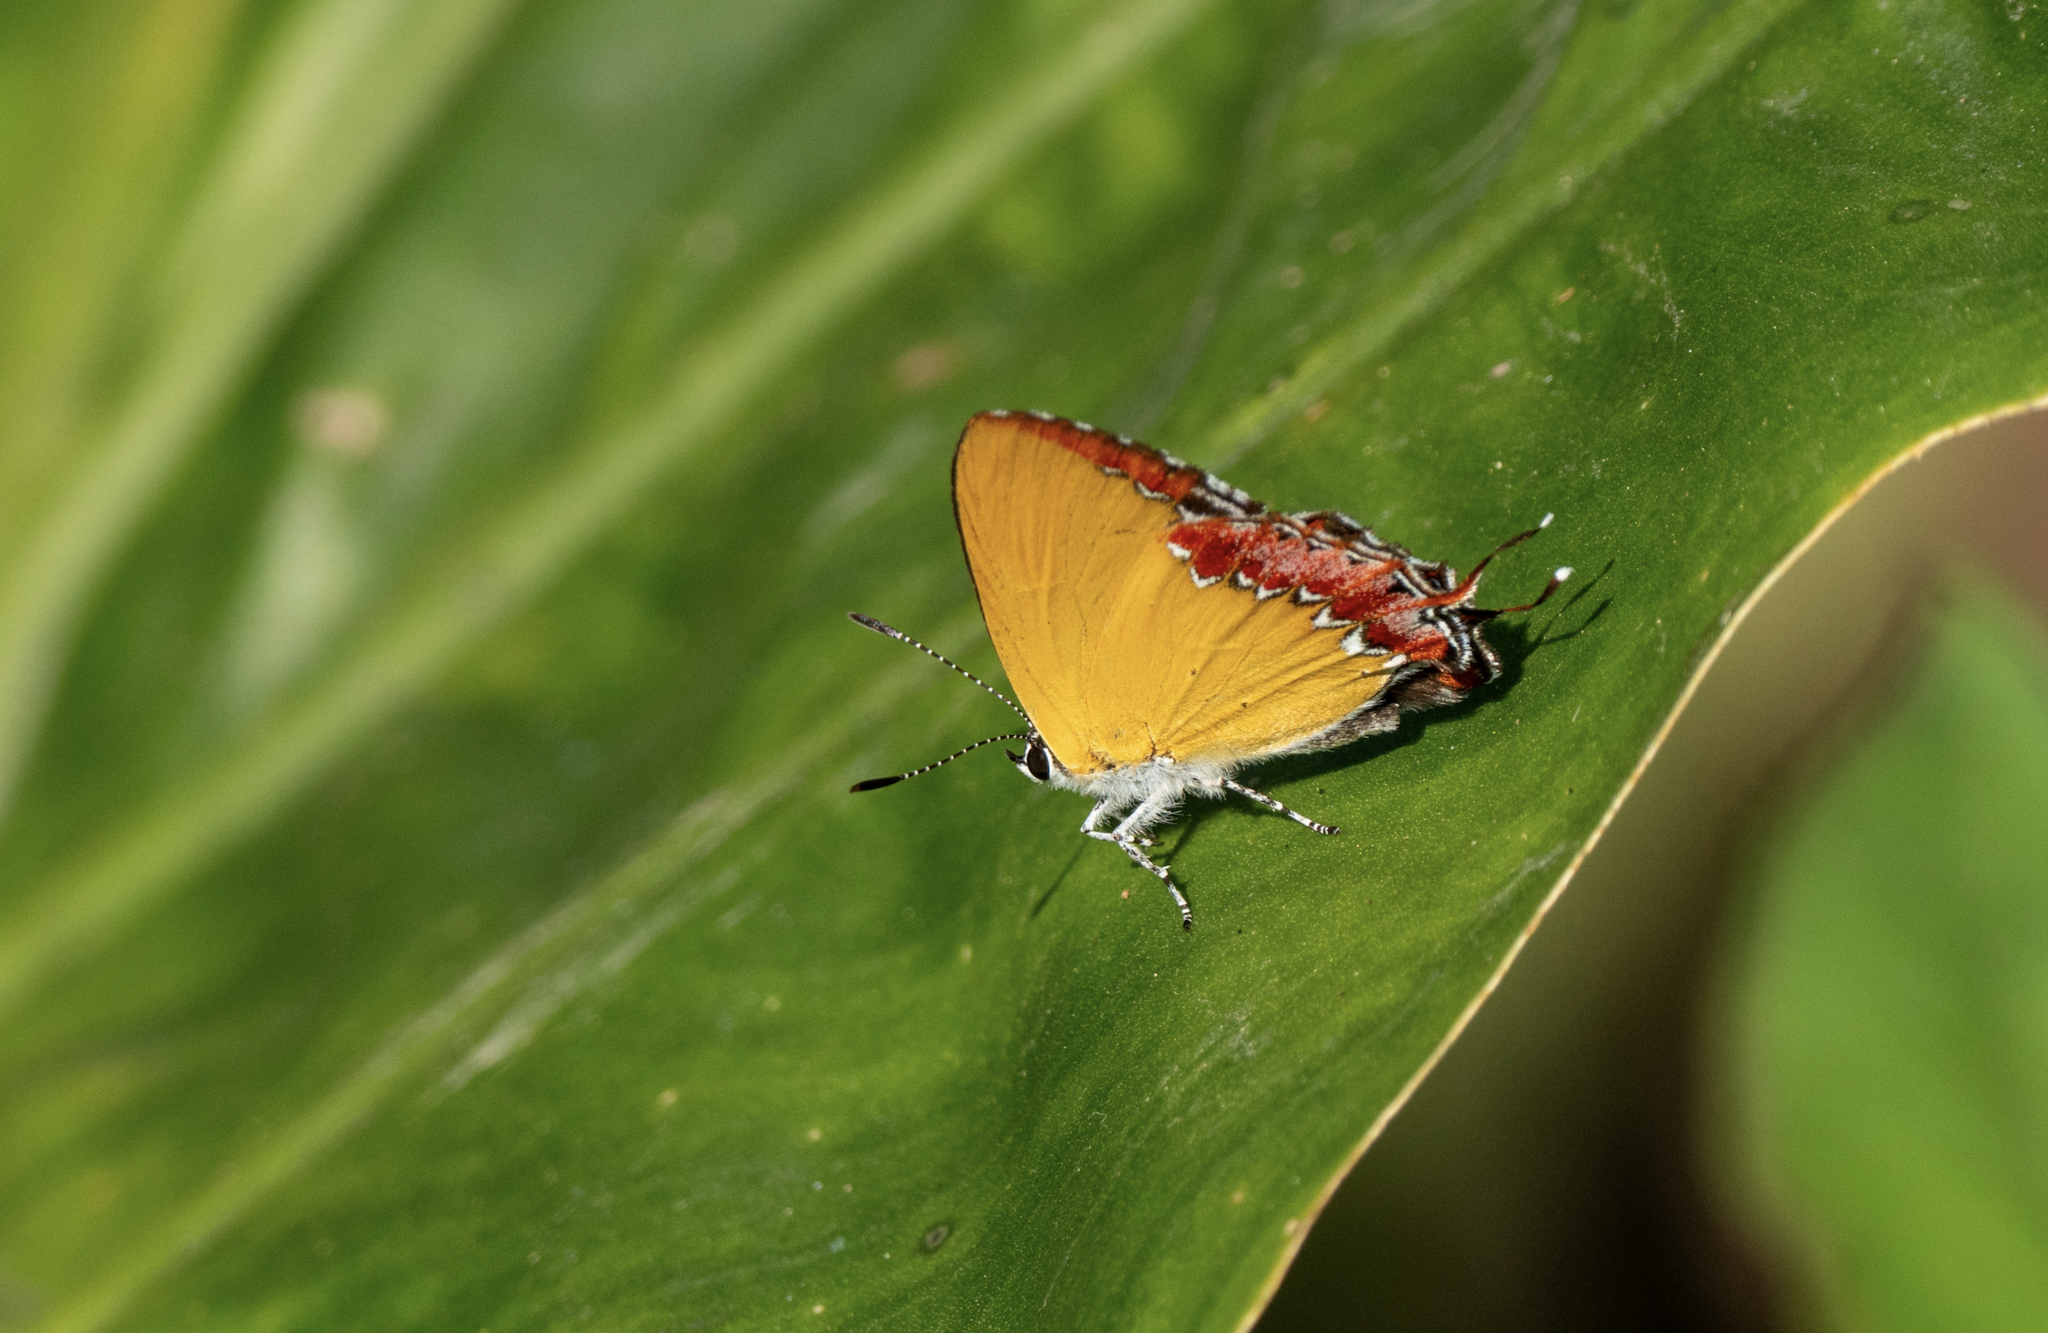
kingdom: Animalia
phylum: Arthropoda
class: Insecta
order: Lepidoptera
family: Lycaenidae
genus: Heliophorus
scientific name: Heliophorus epicles
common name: Purple sapphire
